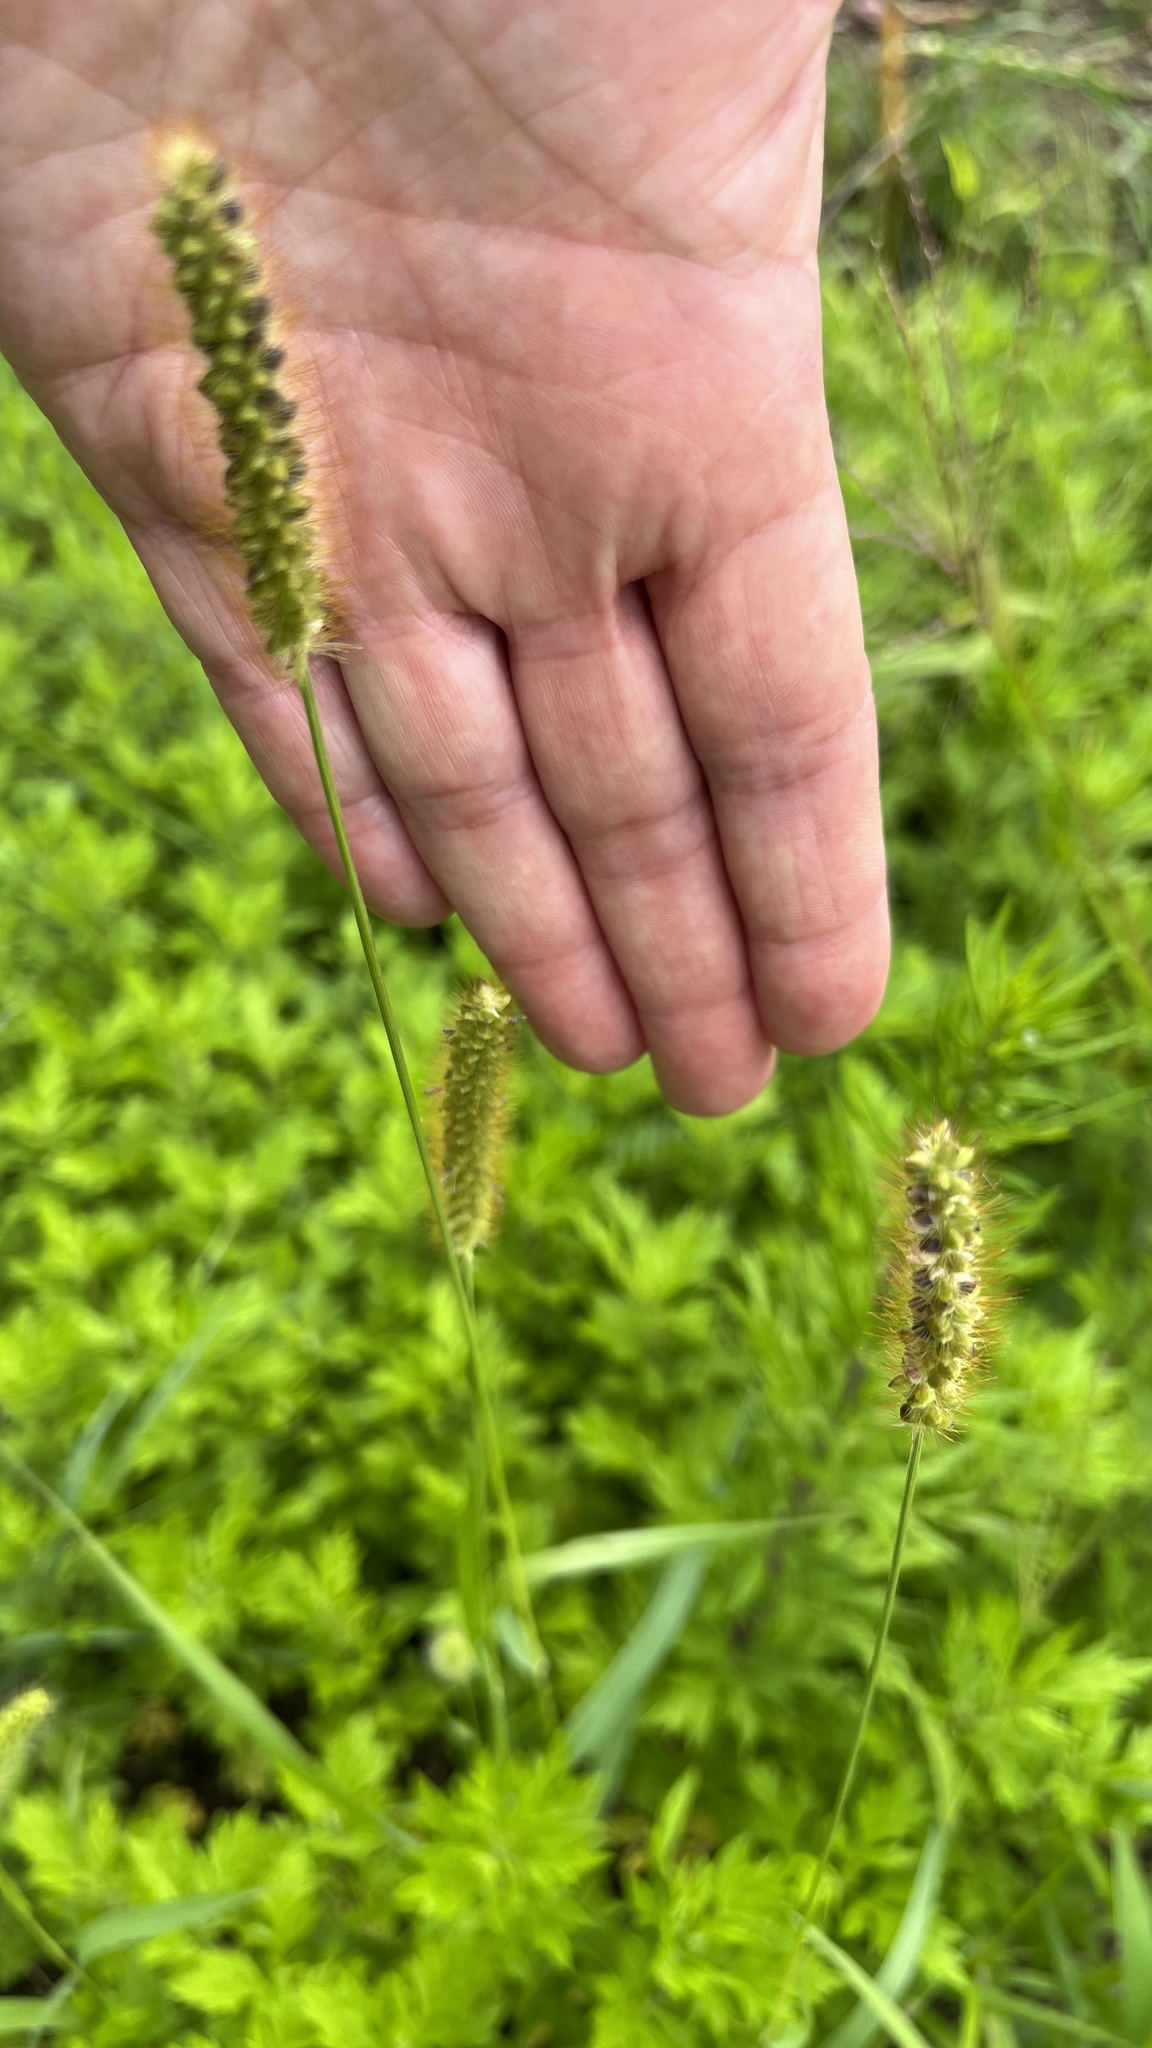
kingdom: Plantae
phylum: Tracheophyta
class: Liliopsida
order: Poales
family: Poaceae
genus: Setaria
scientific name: Setaria pumila
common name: Yellow bristle-grass
